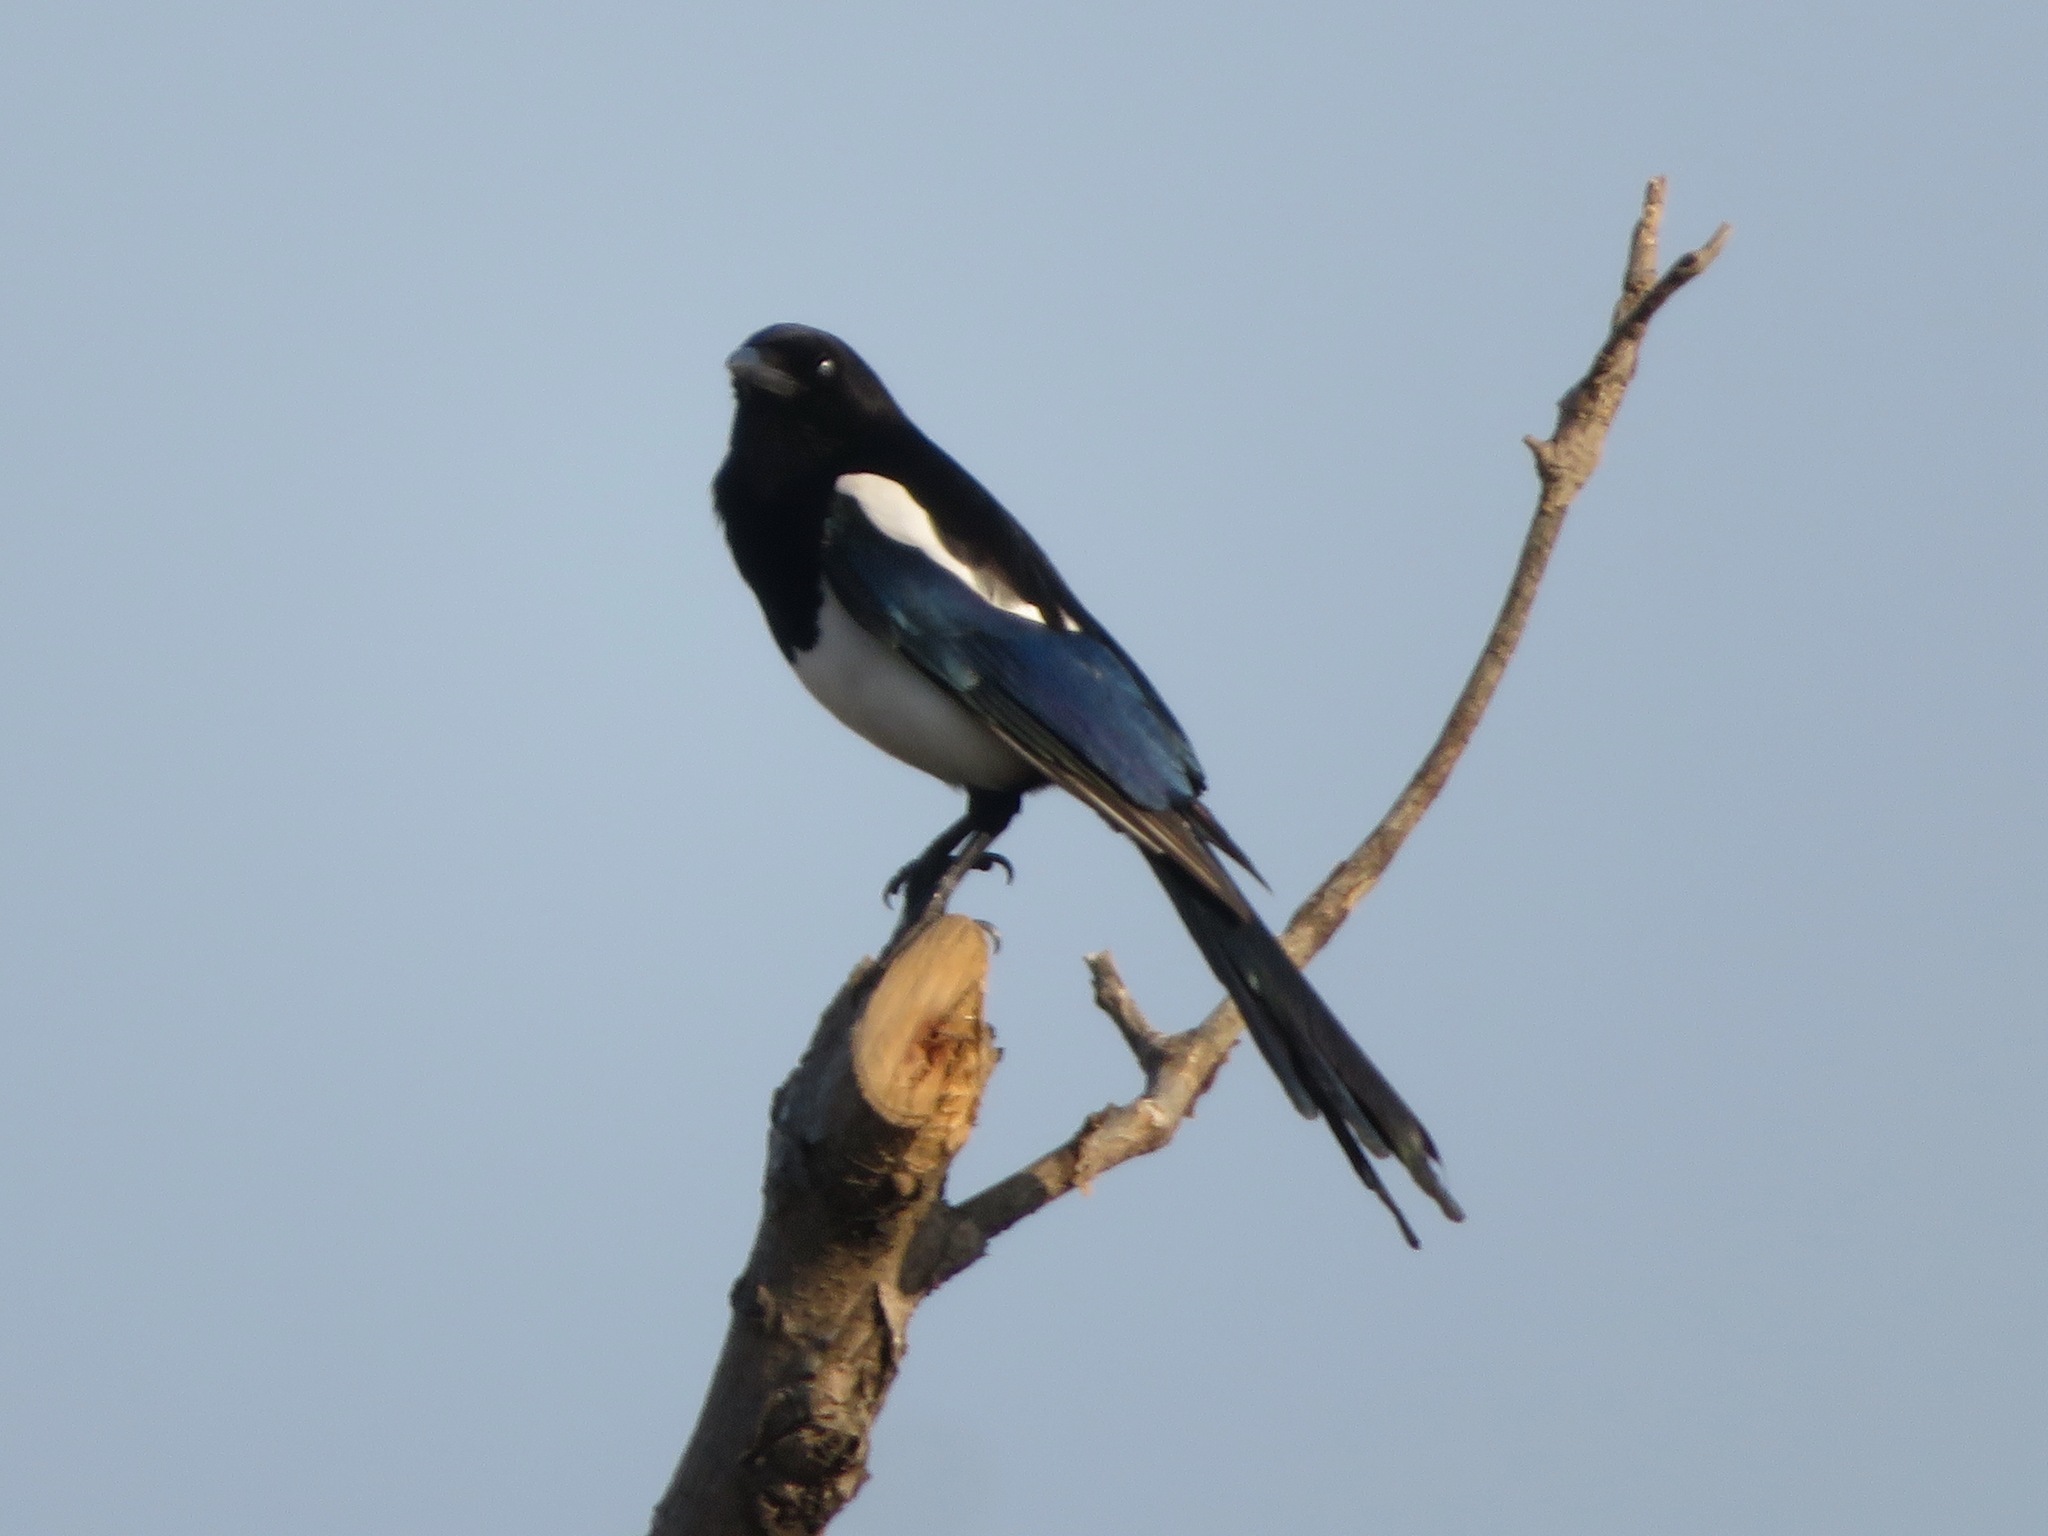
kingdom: Animalia
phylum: Chordata
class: Aves
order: Passeriformes
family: Corvidae
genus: Pica
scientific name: Pica serica
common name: Oriental magpie
